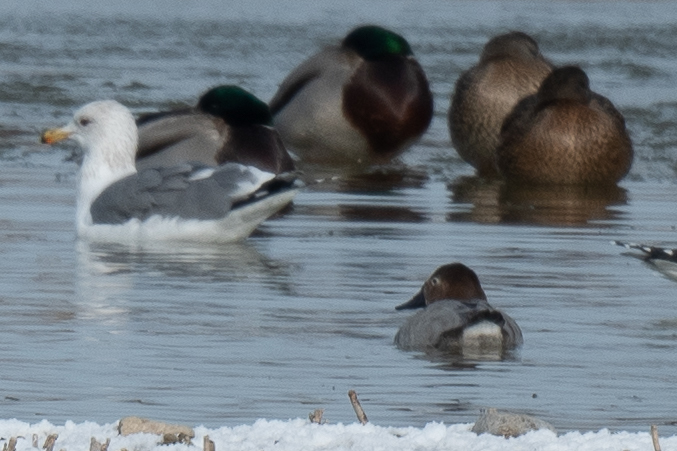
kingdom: Animalia
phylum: Chordata
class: Aves
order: Anseriformes
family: Anatidae
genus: Aythya
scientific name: Aythya valisineria
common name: Canvasback
